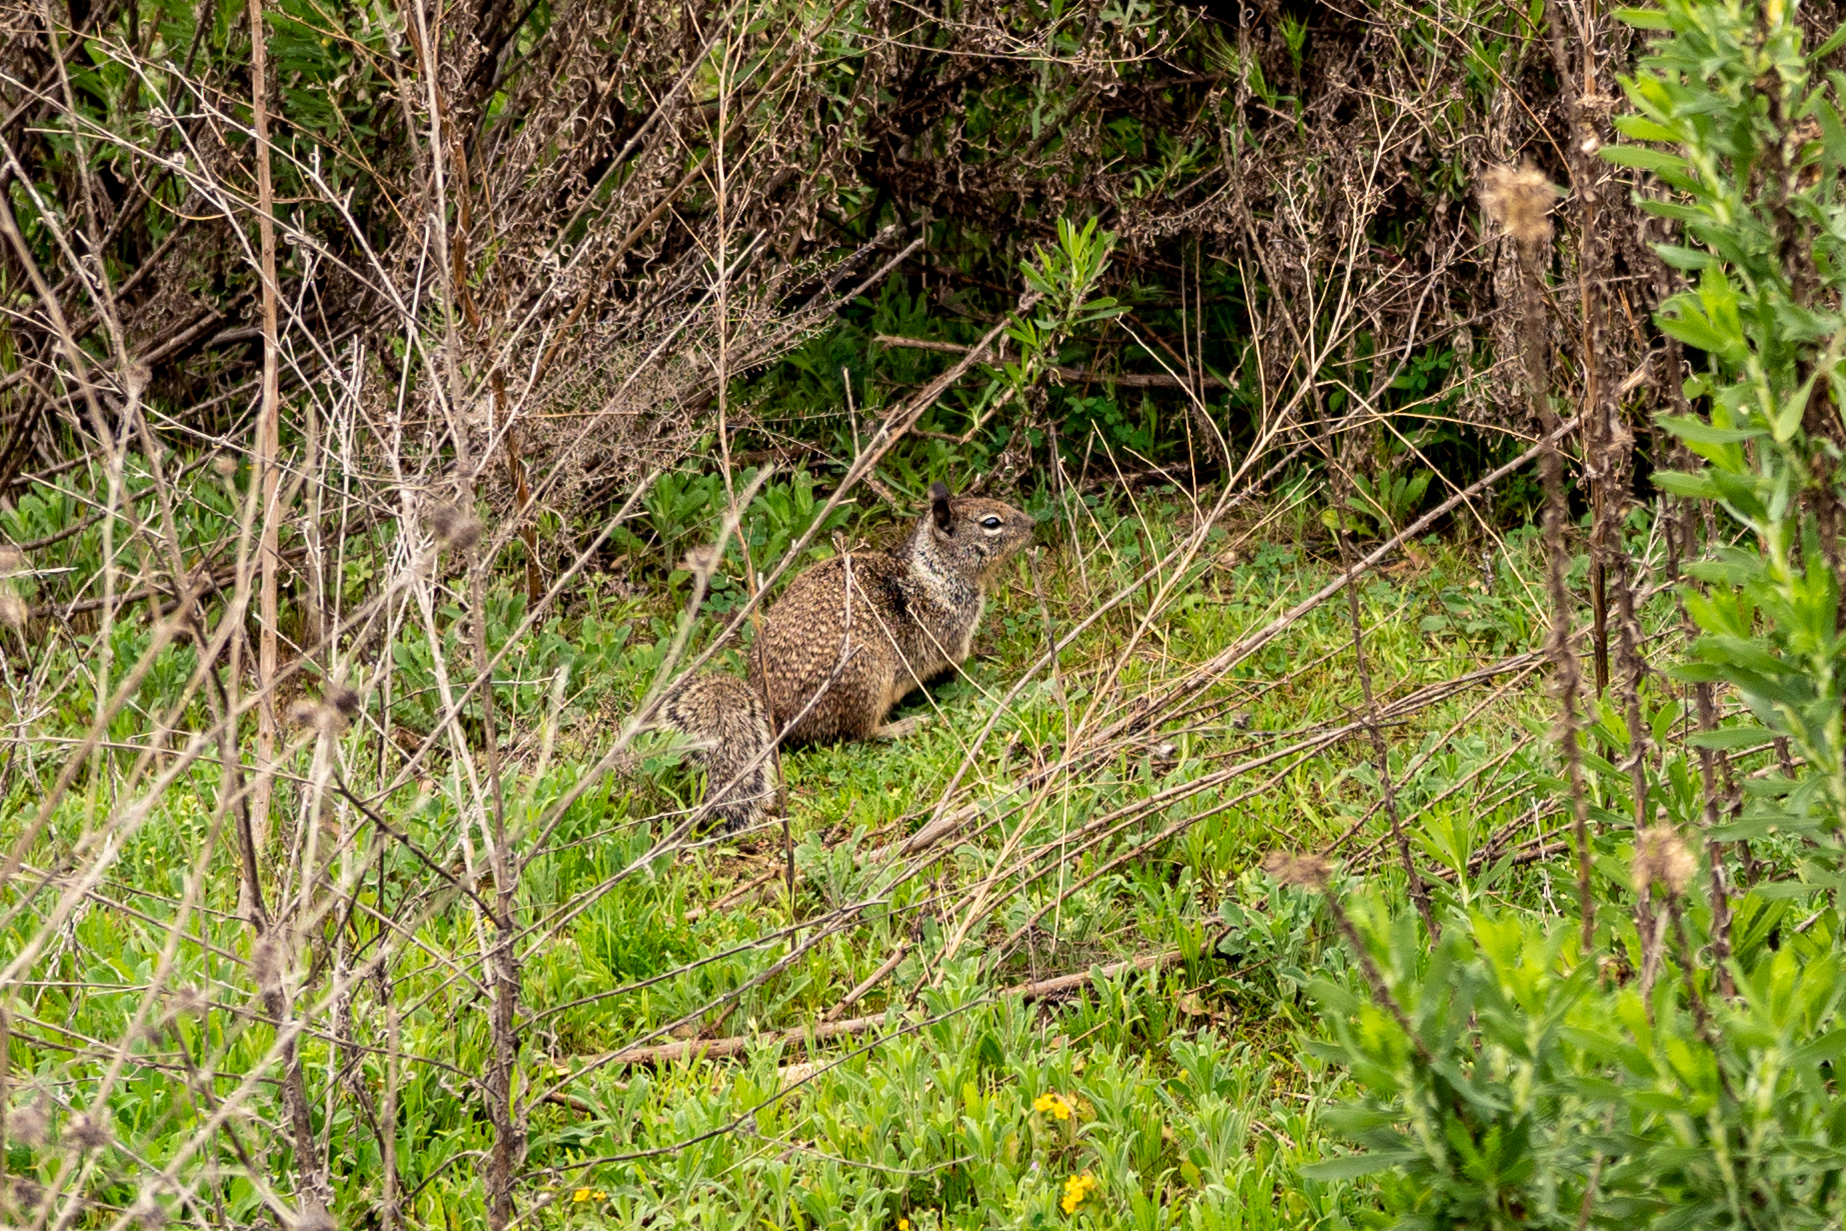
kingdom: Animalia
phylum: Chordata
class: Mammalia
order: Rodentia
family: Sciuridae
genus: Otospermophilus
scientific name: Otospermophilus beecheyi
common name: California ground squirrel
